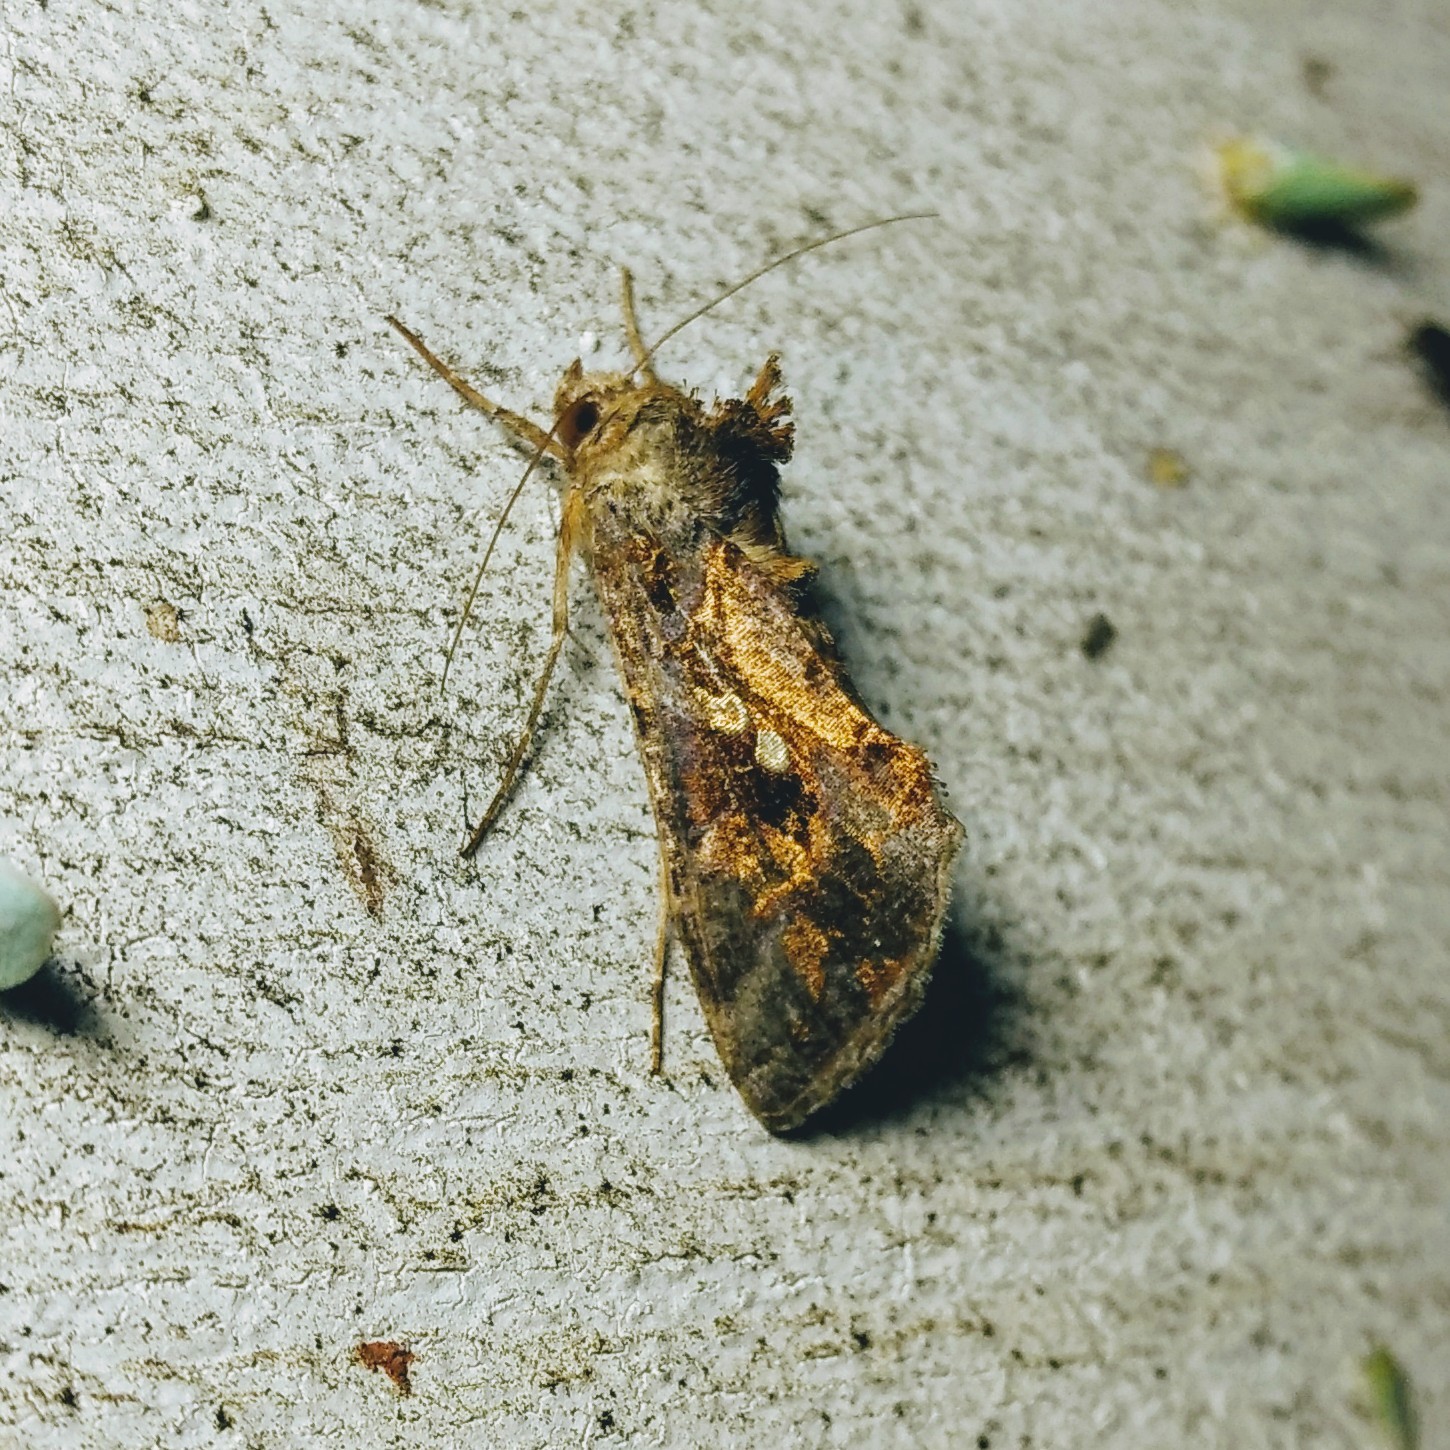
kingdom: Animalia
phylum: Arthropoda
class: Insecta
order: Lepidoptera
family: Noctuidae
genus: Chrysodeixis
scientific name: Chrysodeixis includens
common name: Cutworm moth
